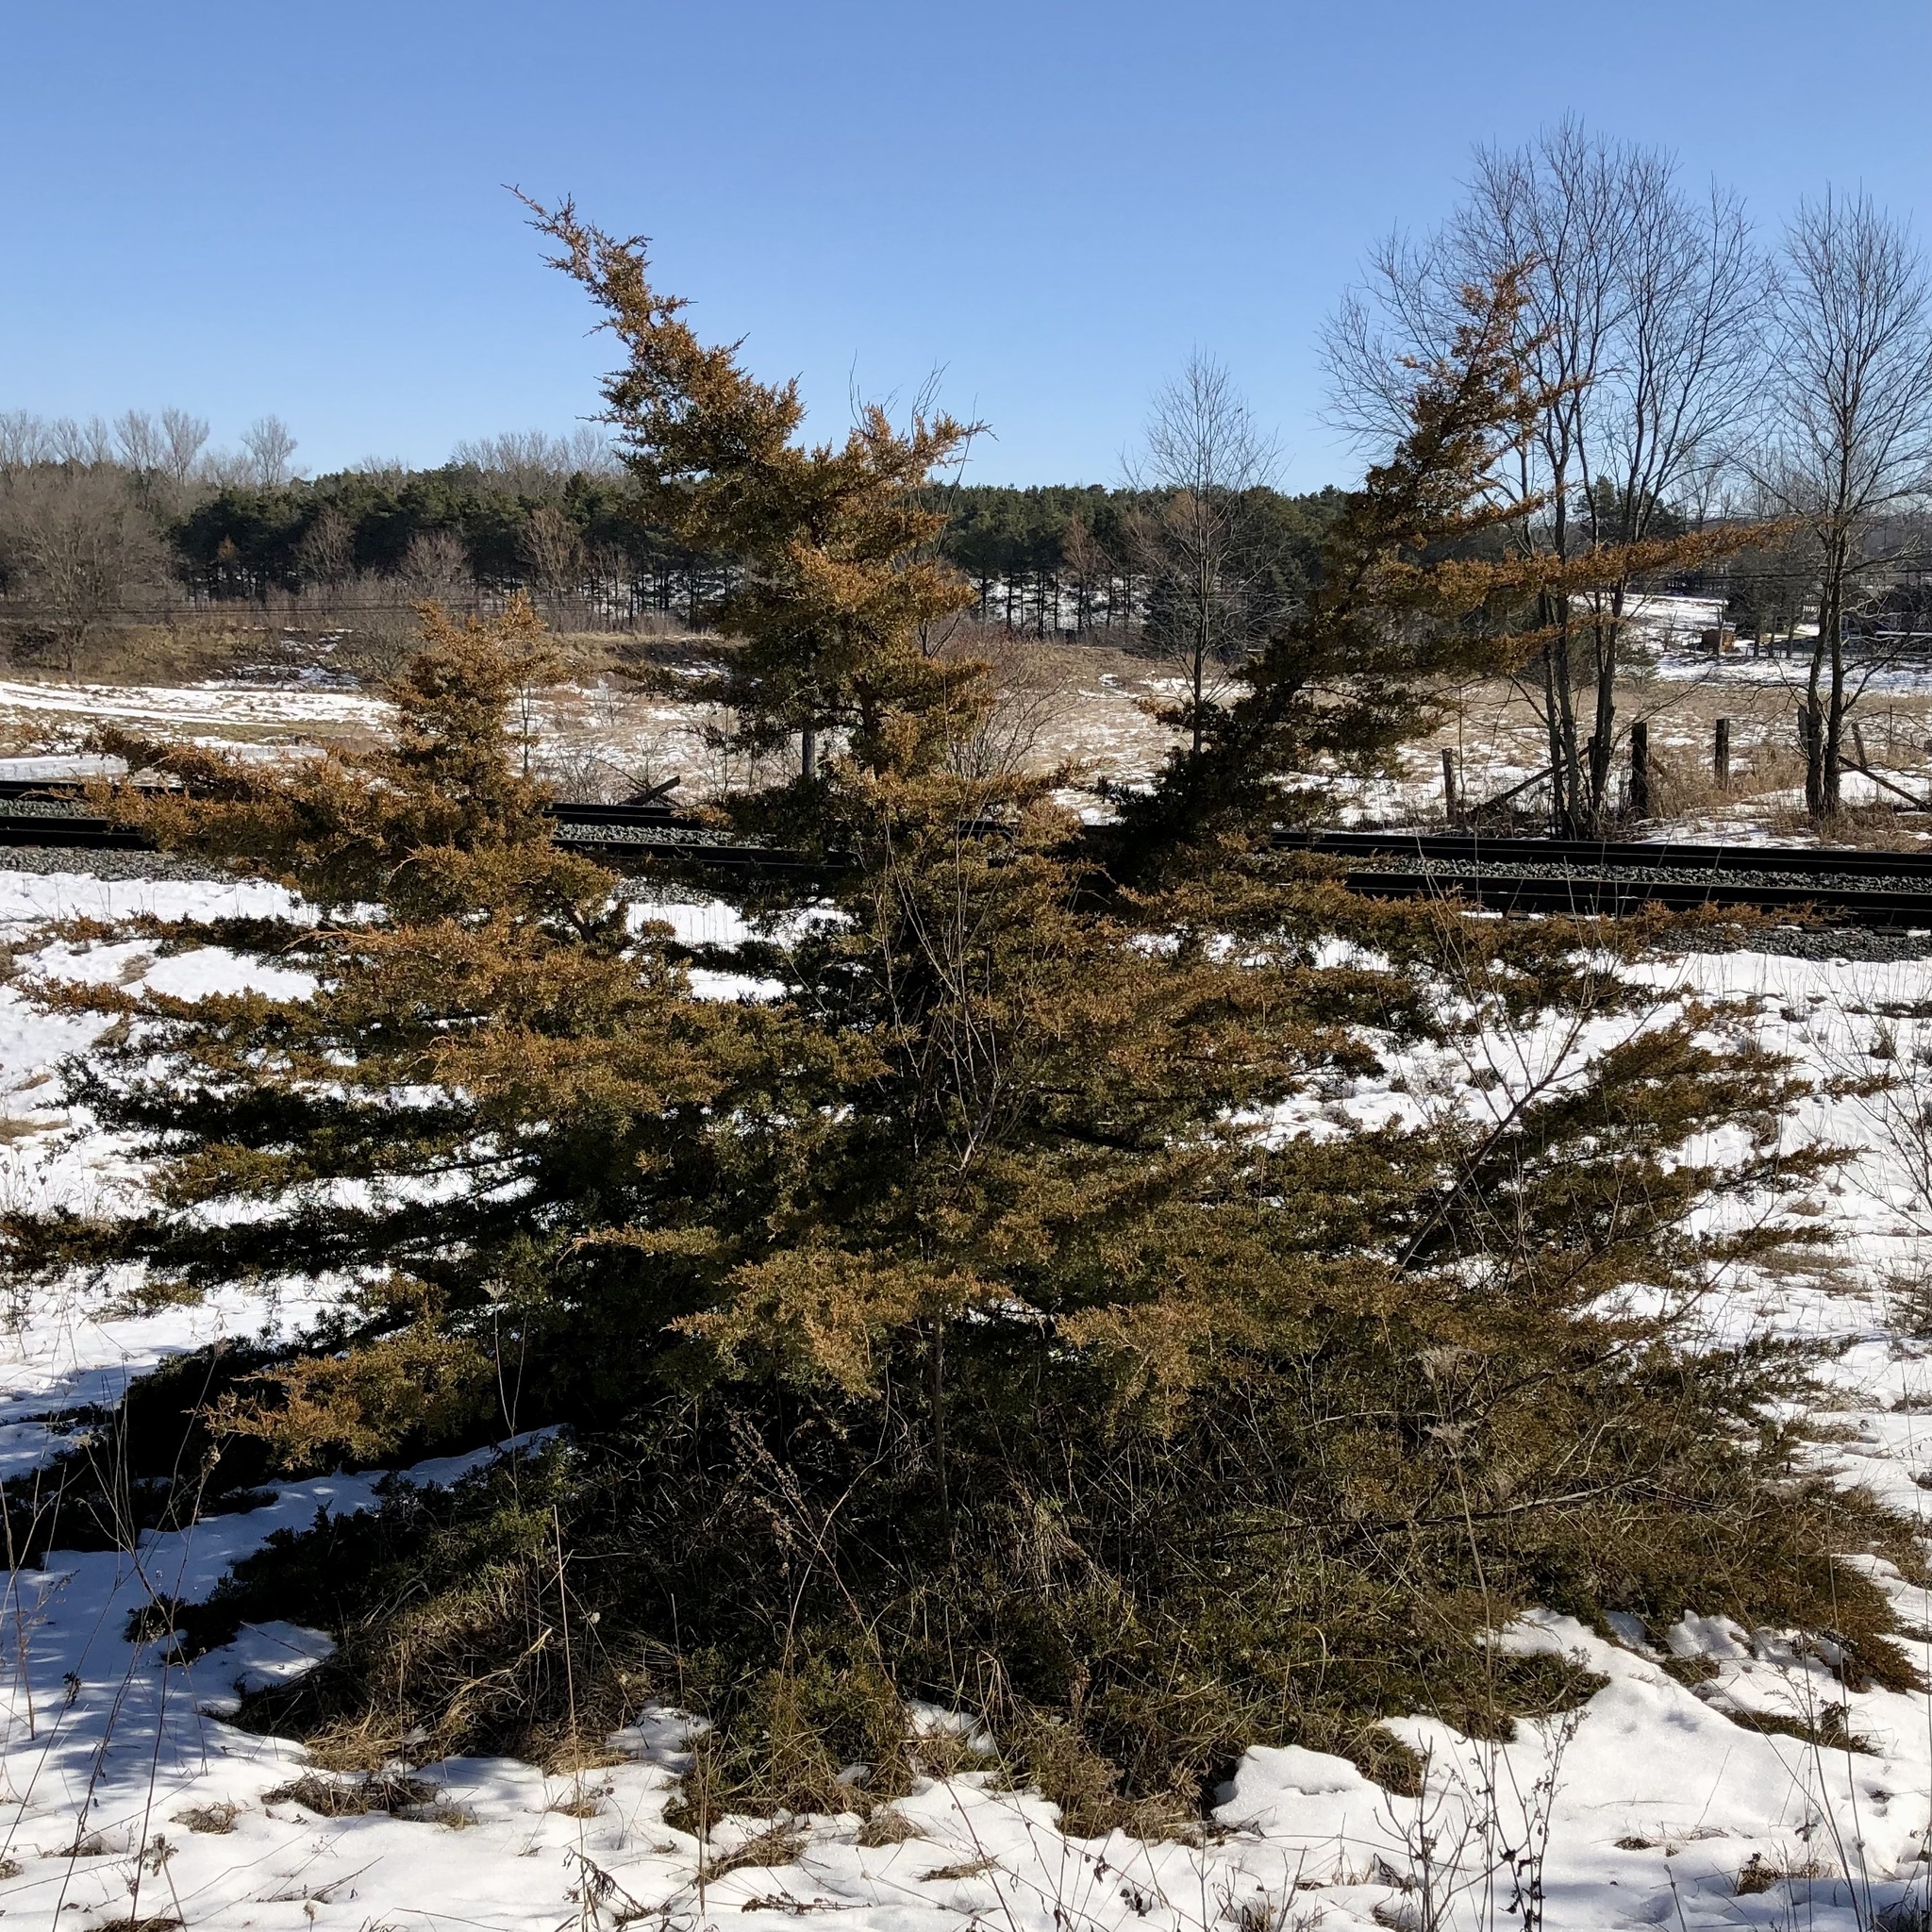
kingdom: Plantae
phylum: Tracheophyta
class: Pinopsida
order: Pinales
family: Cupressaceae
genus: Juniperus
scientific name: Juniperus virginiana
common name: Red juniper
